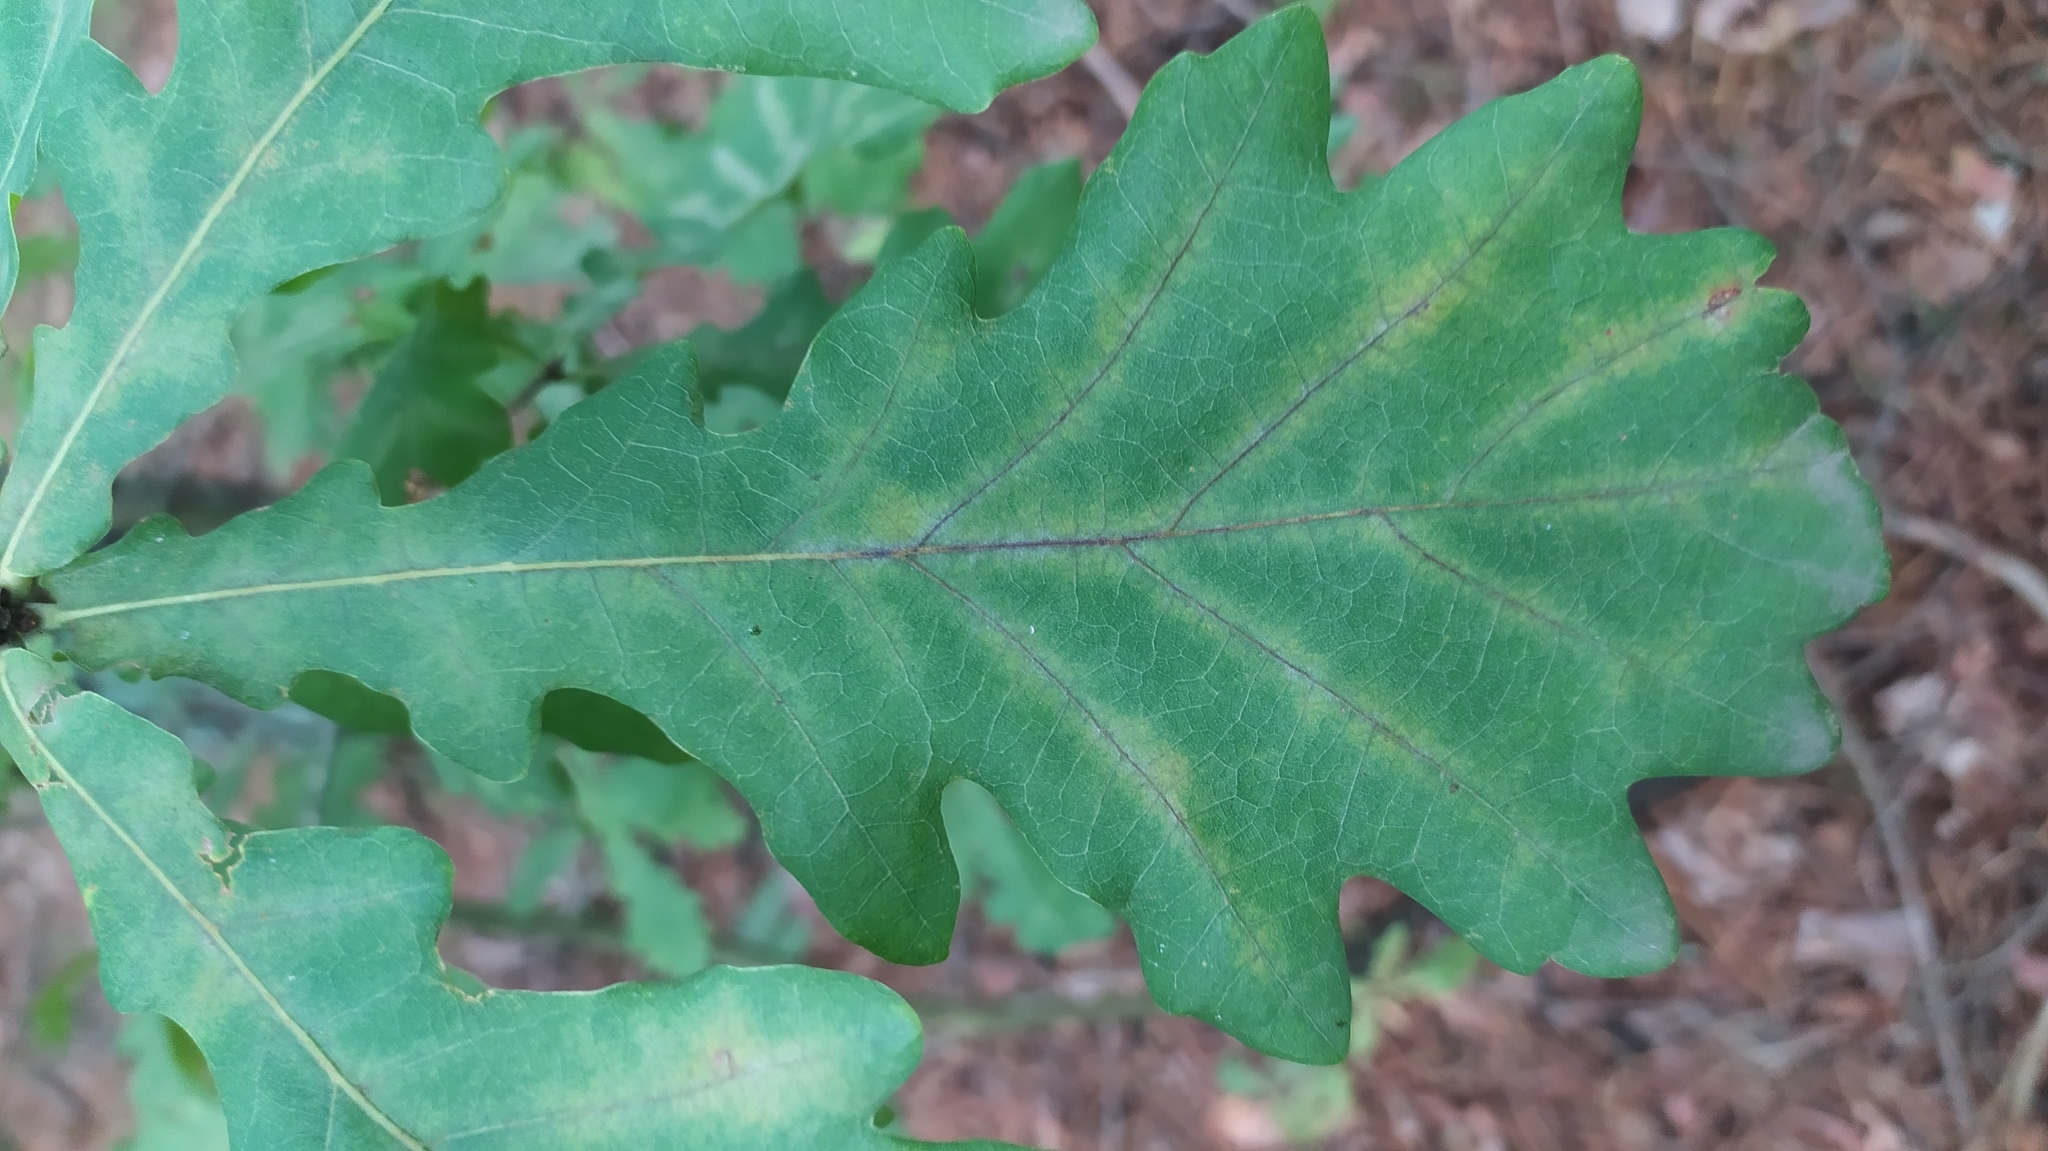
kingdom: Plantae
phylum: Tracheophyta
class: Magnoliopsida
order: Fagales
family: Fagaceae
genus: Quercus
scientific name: Quercus robur
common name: Pedunculate oak
